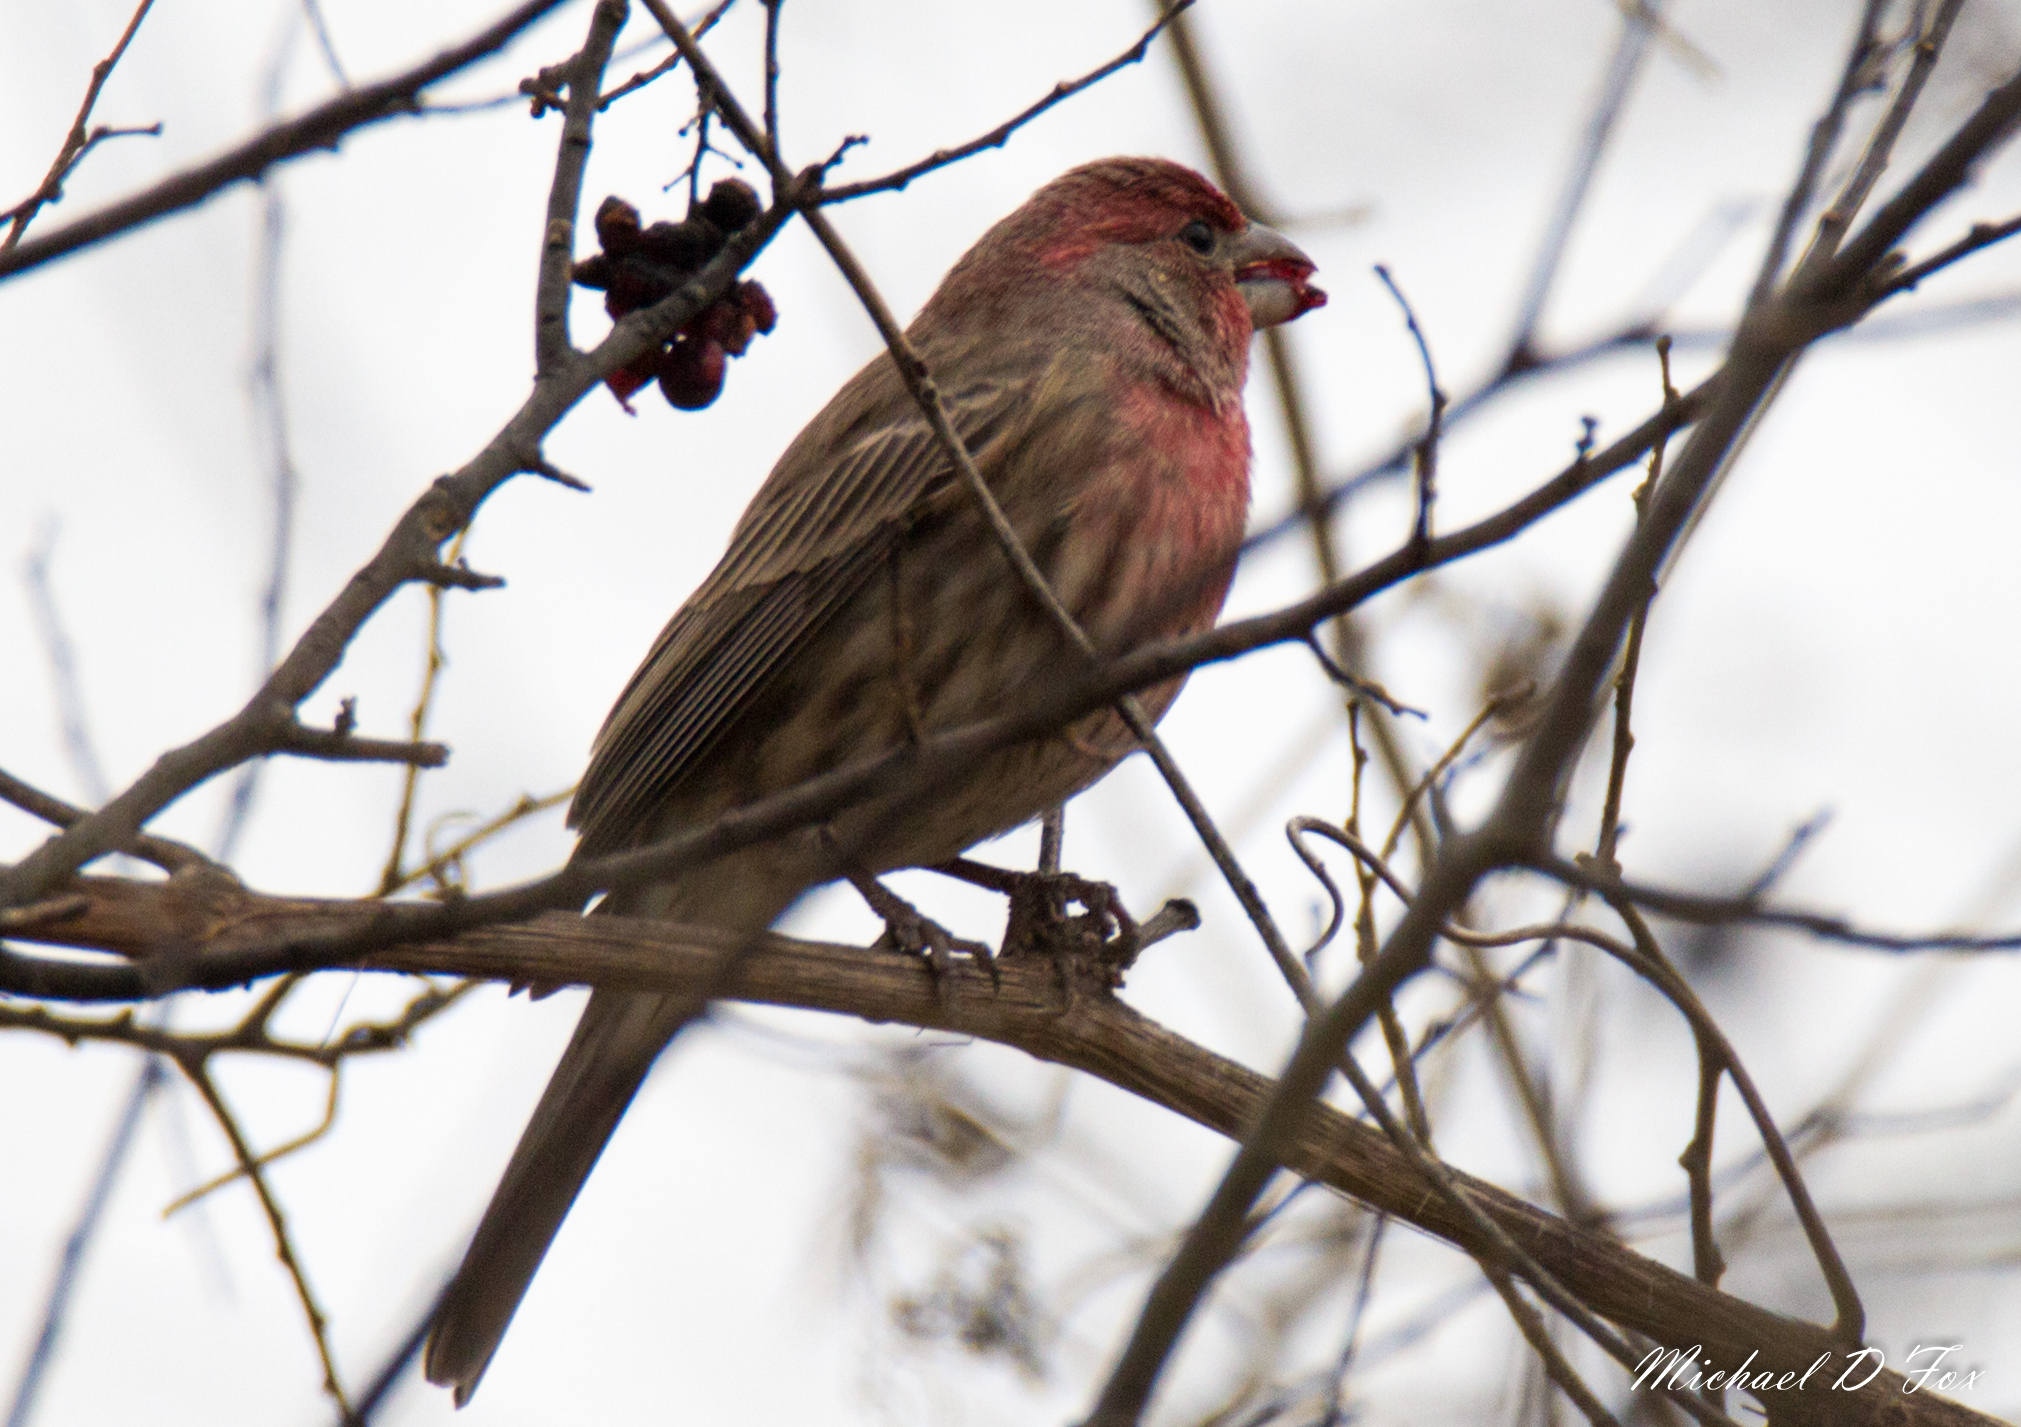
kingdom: Animalia
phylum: Chordata
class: Aves
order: Passeriformes
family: Fringillidae
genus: Haemorhous
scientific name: Haemorhous mexicanus
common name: House finch
